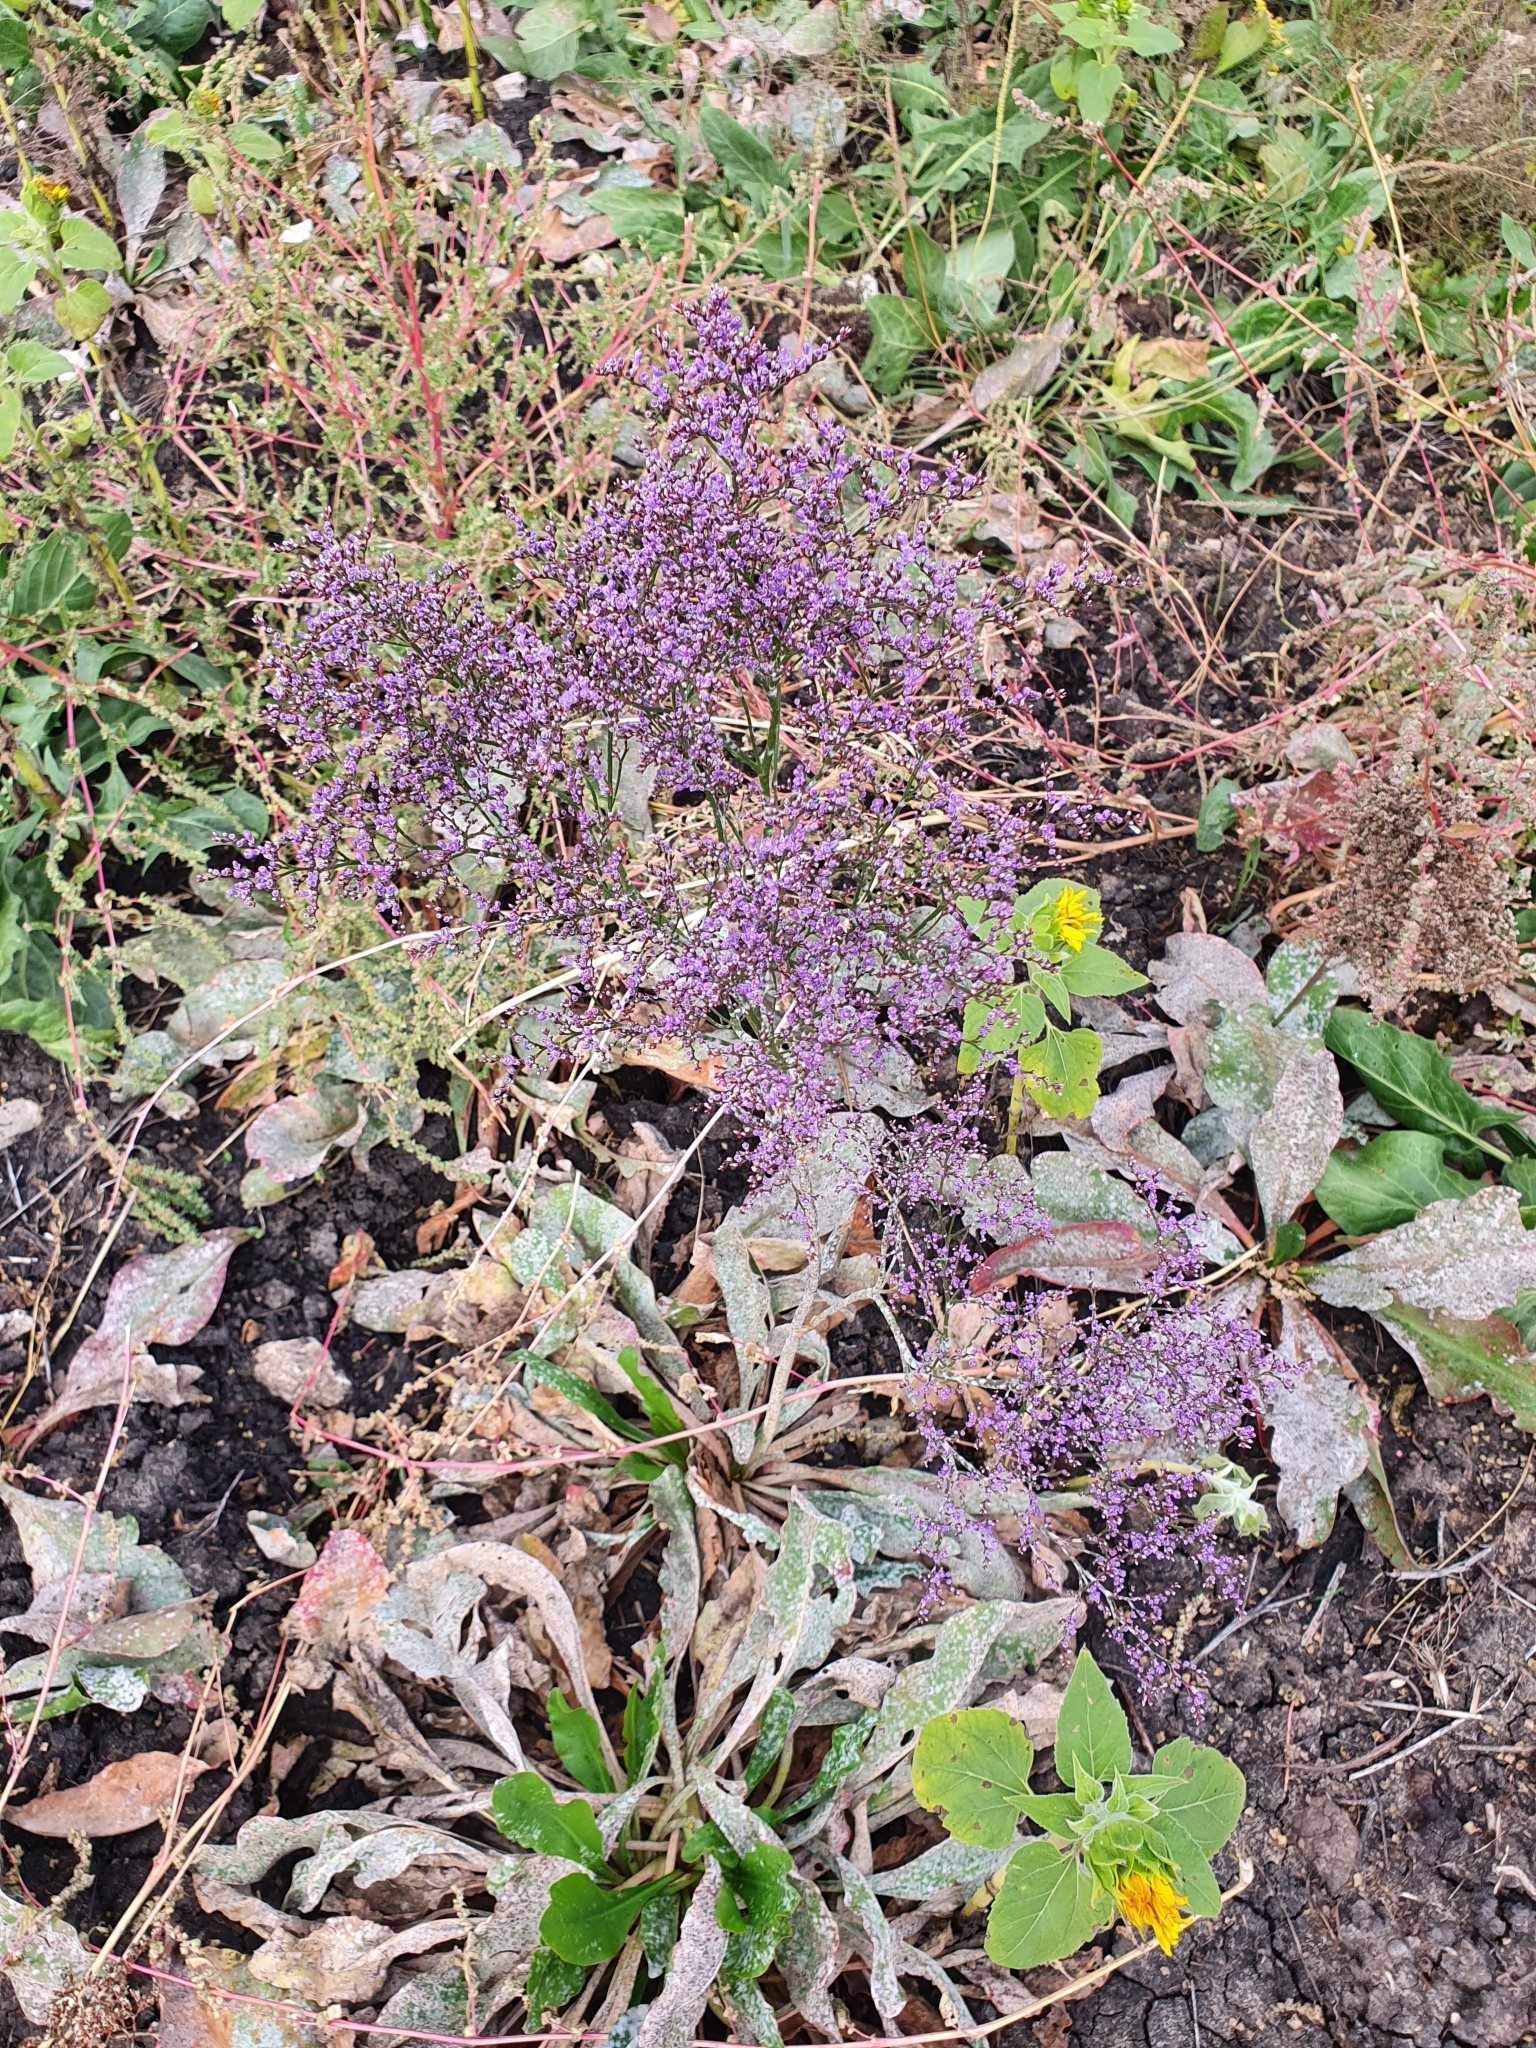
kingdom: Plantae
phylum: Tracheophyta
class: Magnoliopsida
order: Caryophyllales
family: Plumbaginaceae
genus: Limonium
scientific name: Limonium gmelini
